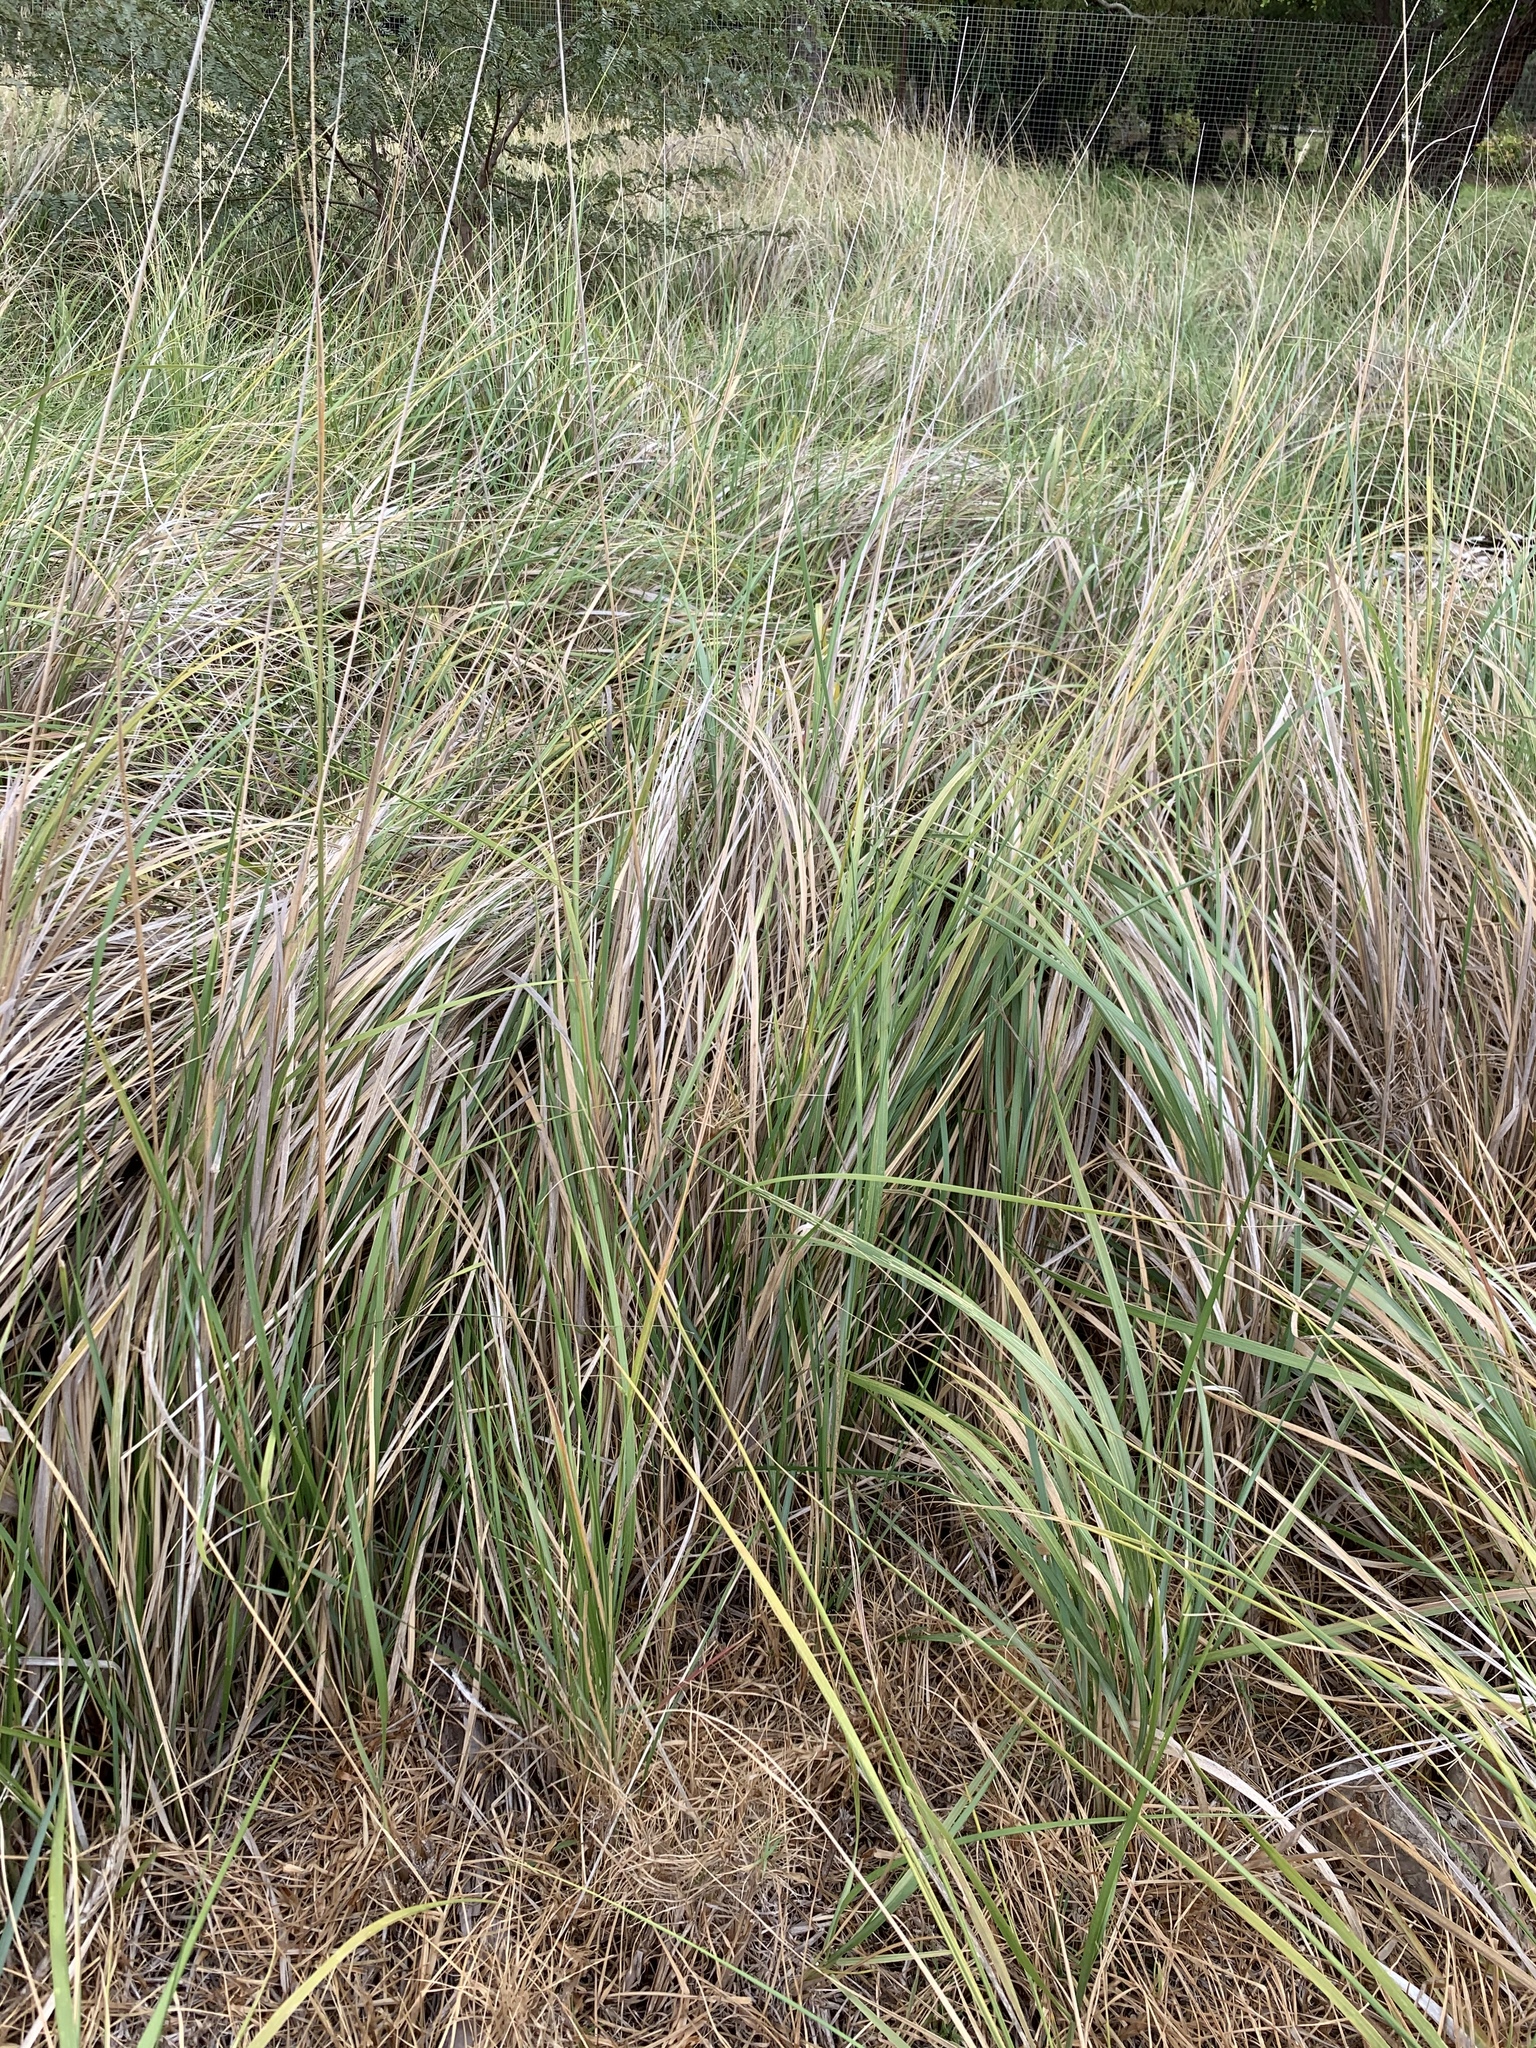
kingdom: Plantae
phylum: Tracheophyta
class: Liliopsida
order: Poales
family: Poaceae
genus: Cenchrus
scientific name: Cenchrus caudatus
